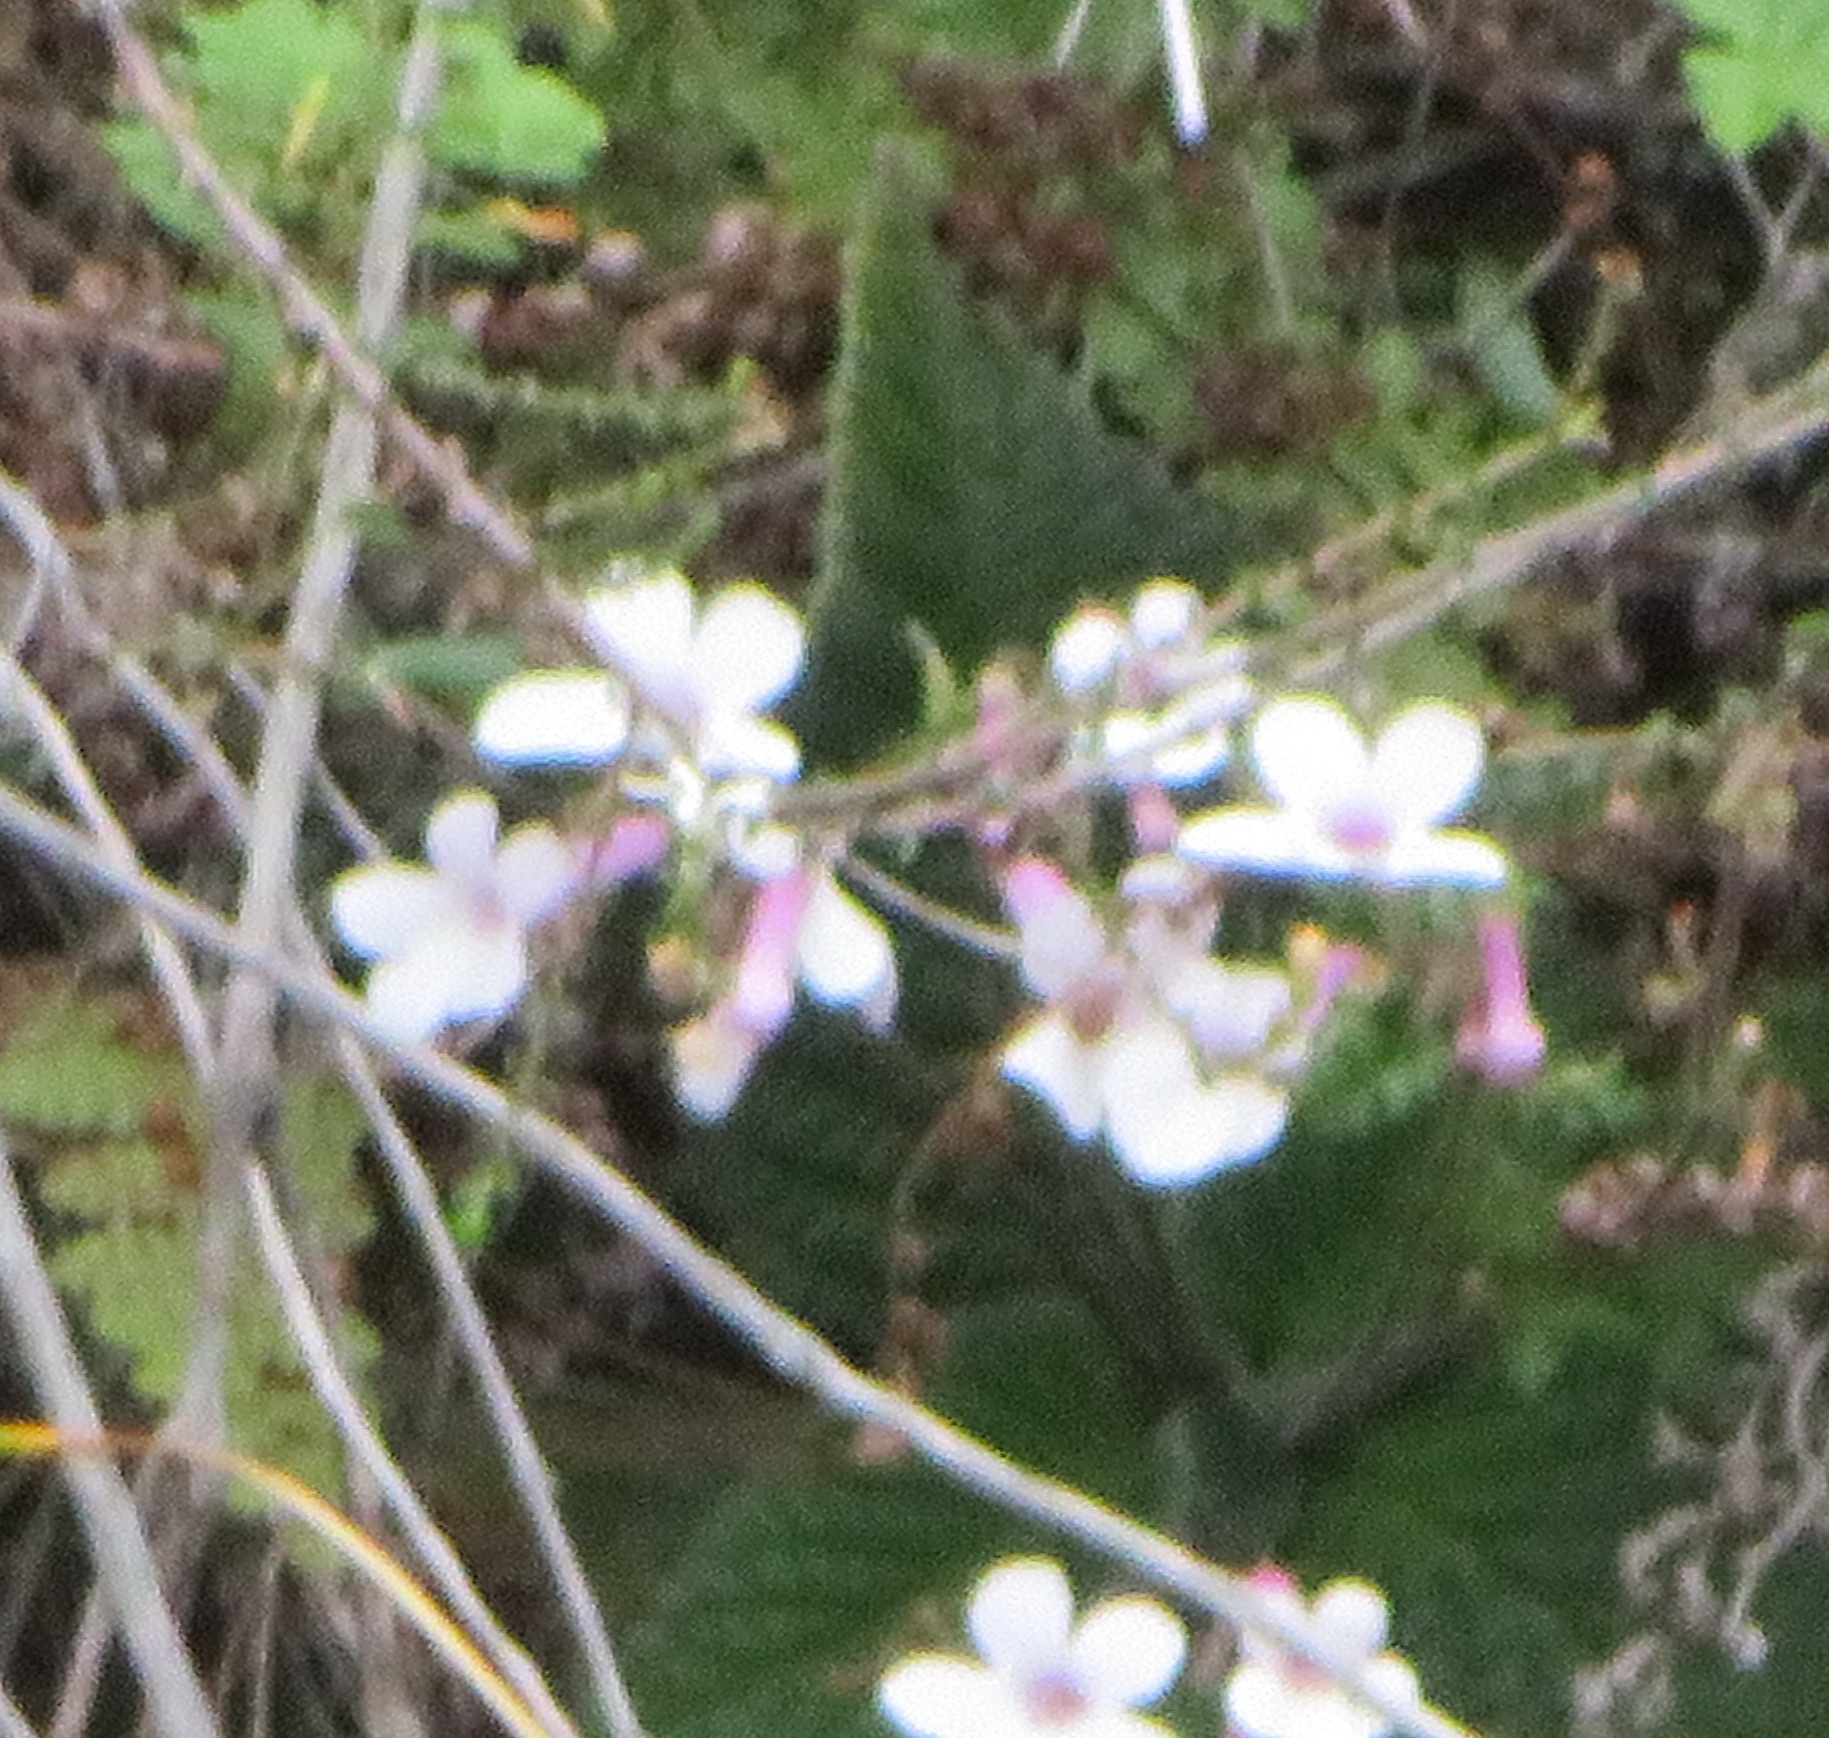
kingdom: Plantae
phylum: Tracheophyta
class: Magnoliopsida
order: Lamiales
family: Gesneriaceae
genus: Streptocarpus
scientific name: Streptocarpus meyeri
